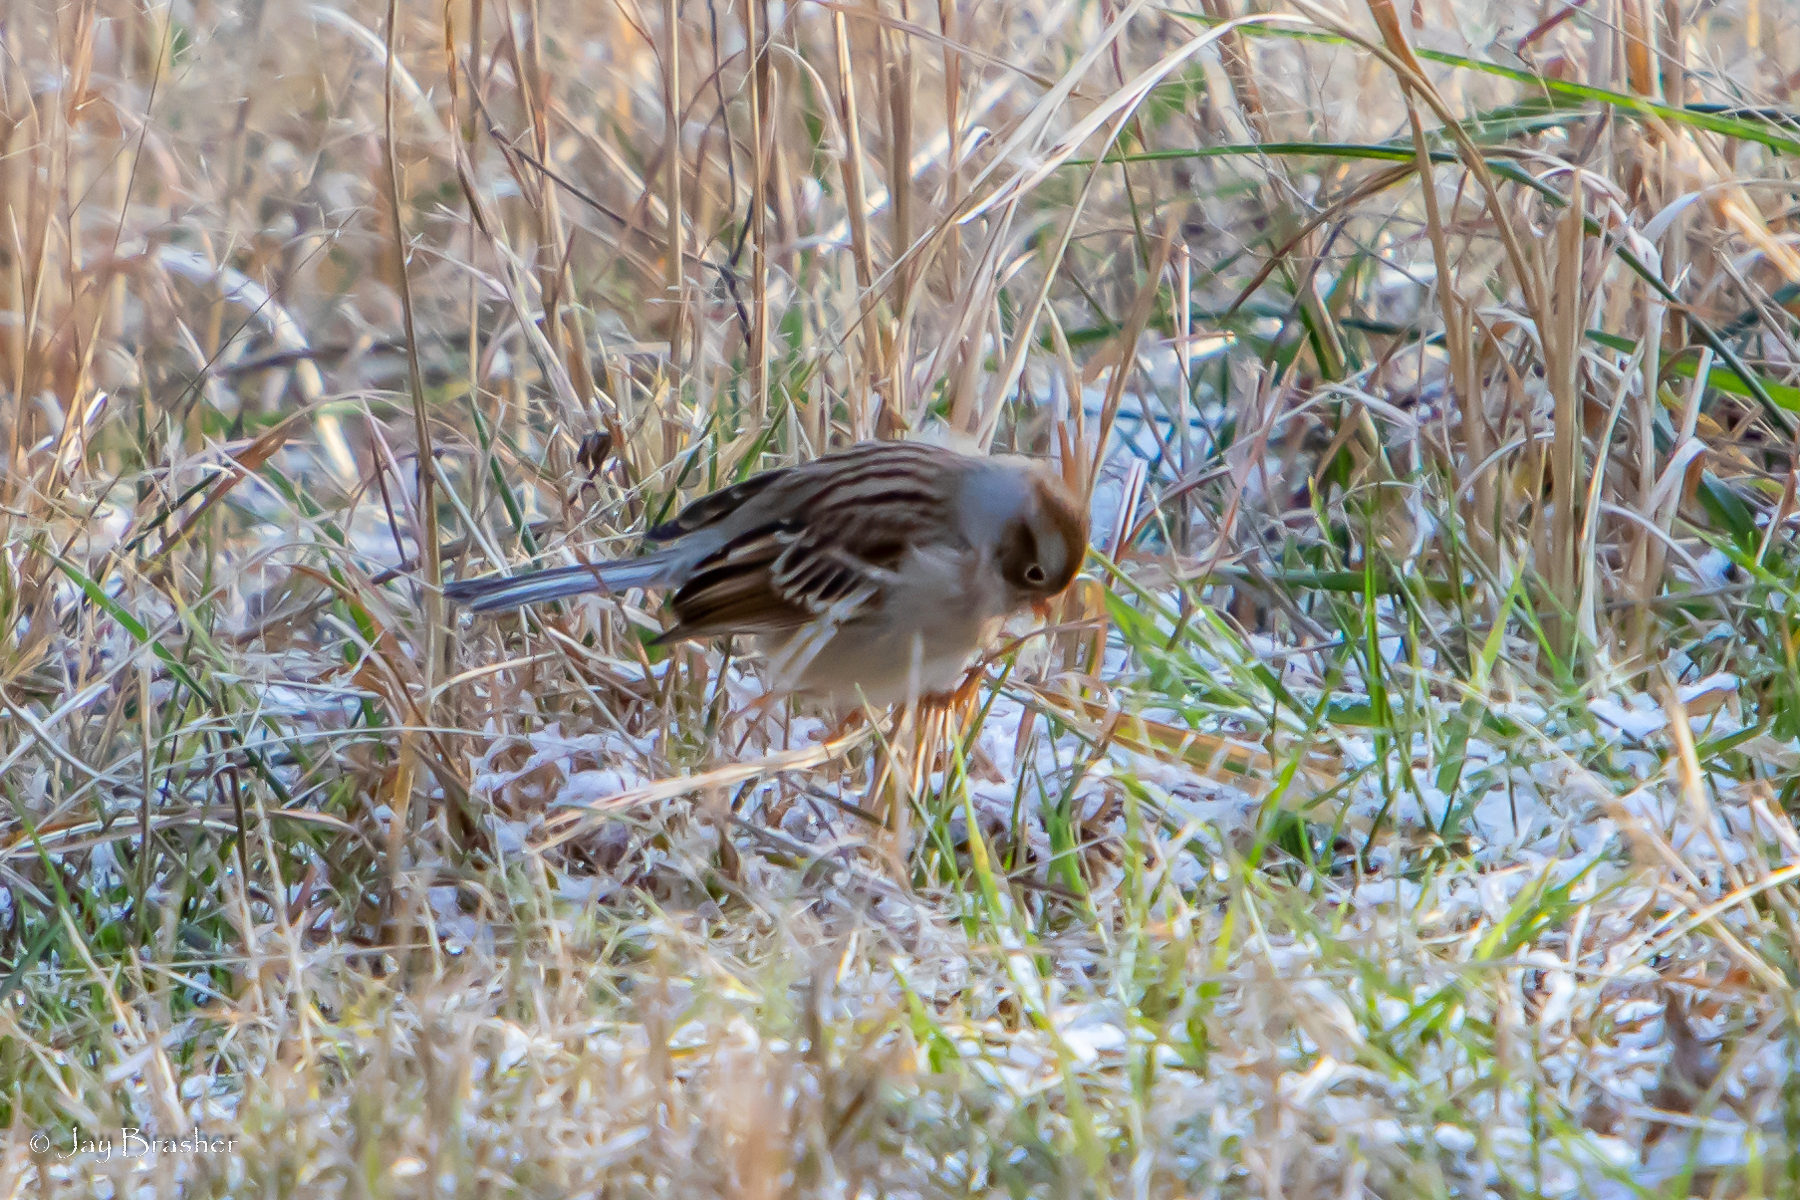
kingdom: Animalia
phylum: Chordata
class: Aves
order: Passeriformes
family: Passerellidae
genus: Spizella
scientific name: Spizella pusilla
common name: Field sparrow
